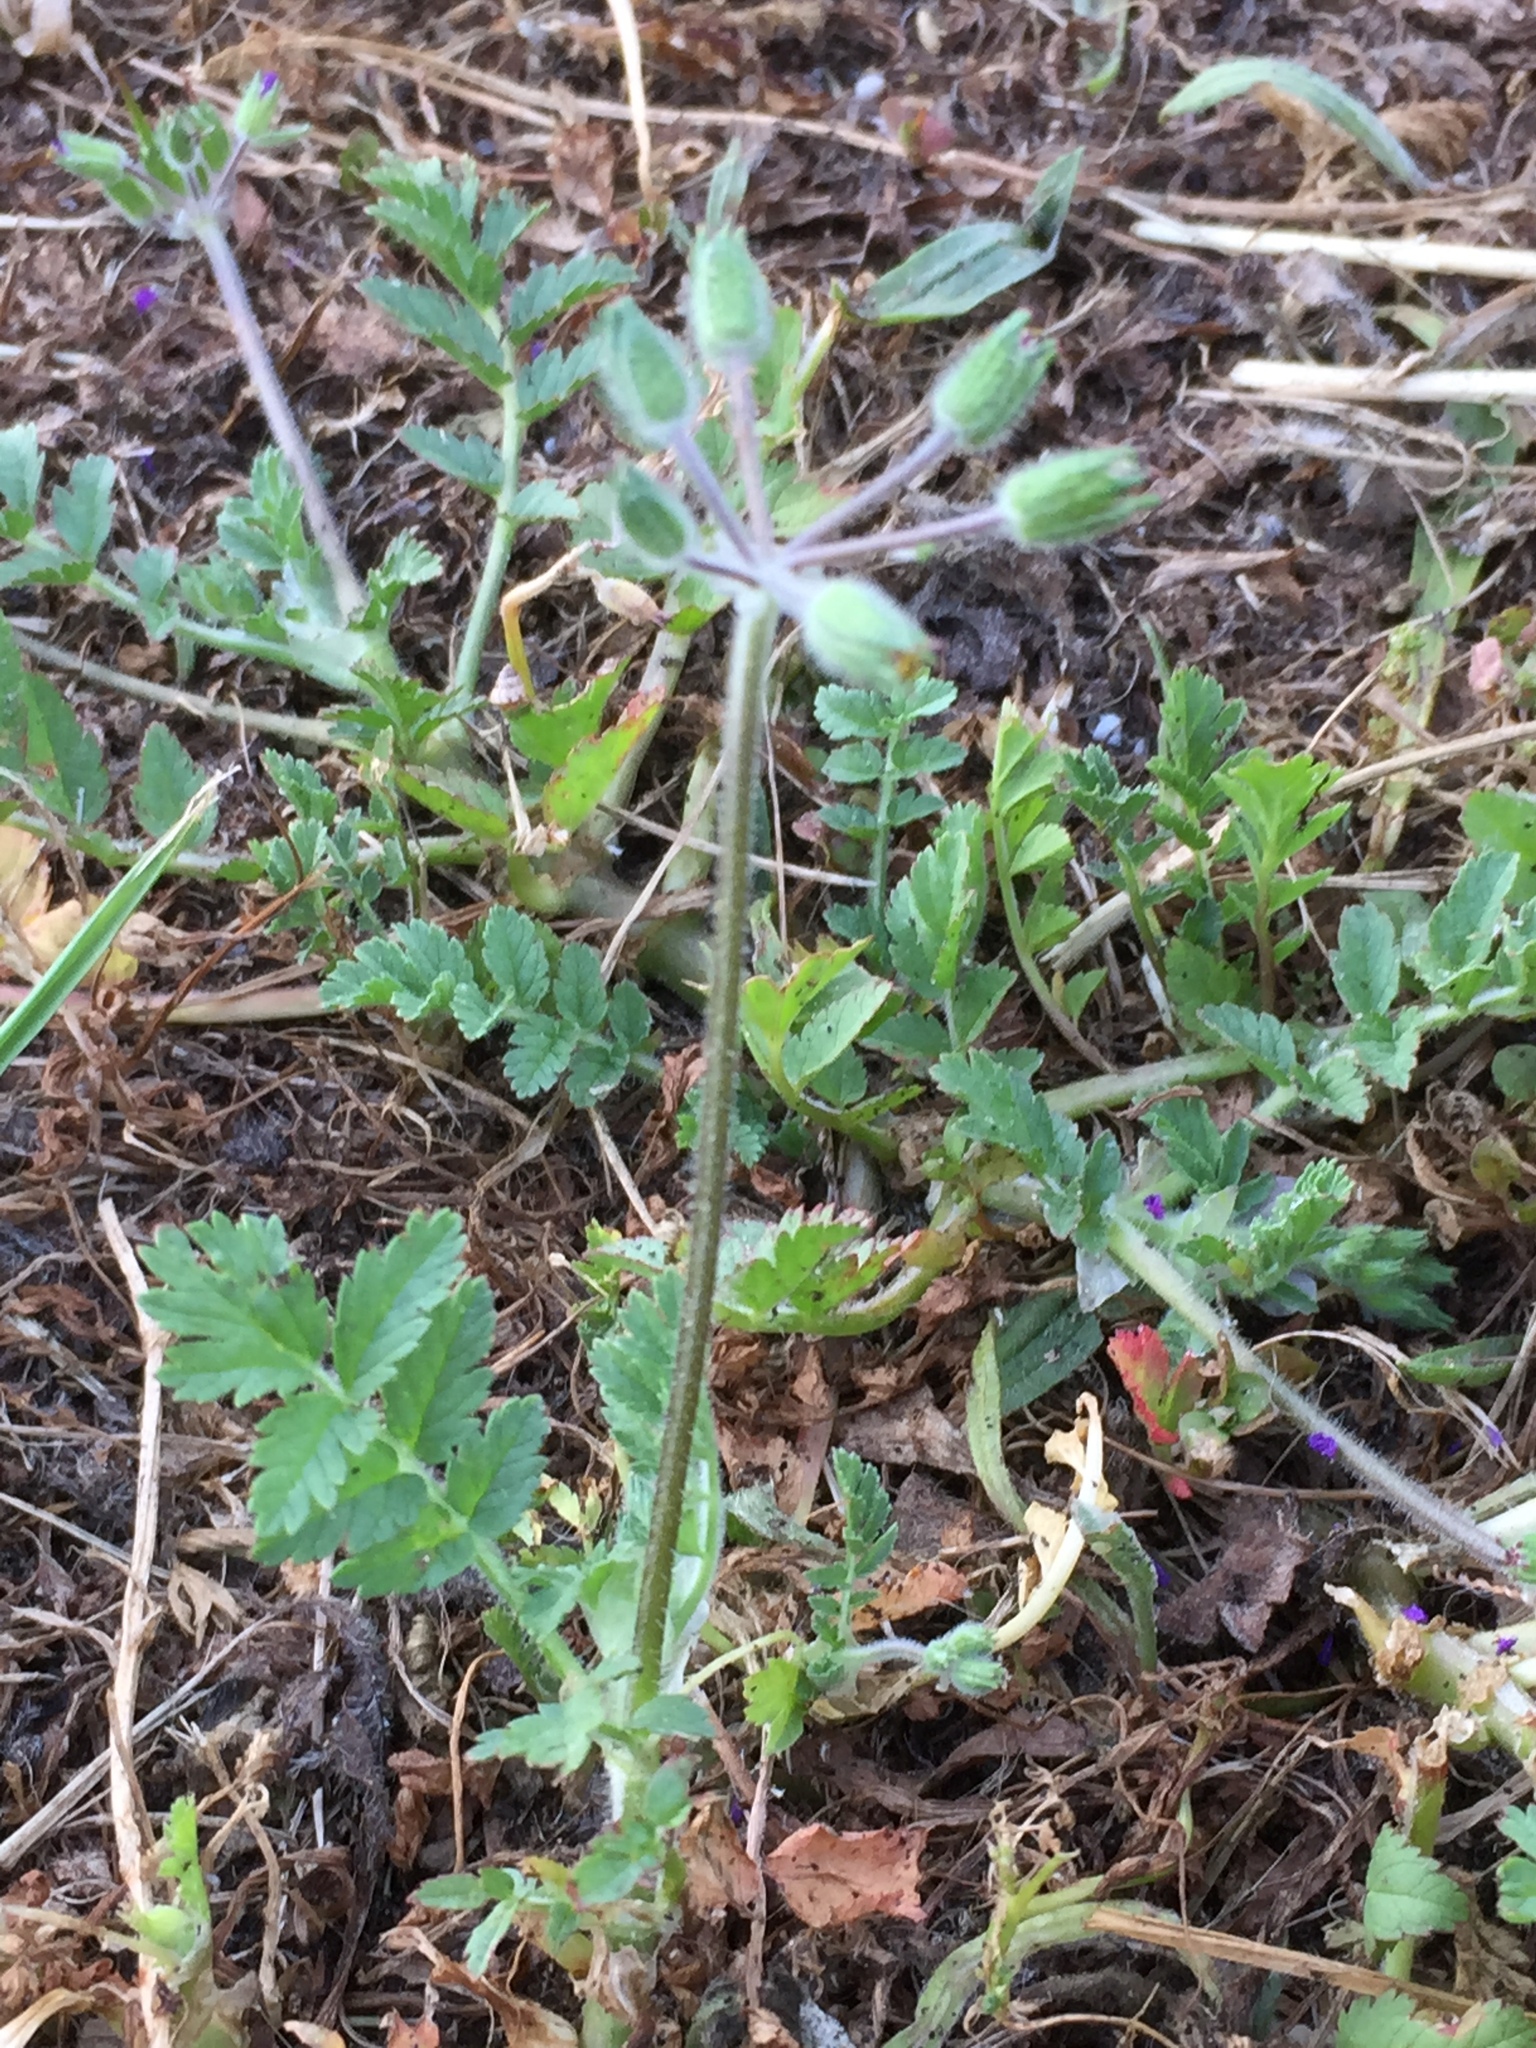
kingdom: Plantae
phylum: Tracheophyta
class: Magnoliopsida
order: Geraniales
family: Geraniaceae
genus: Erodium
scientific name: Erodium moschatum
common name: Musk stork's-bill
